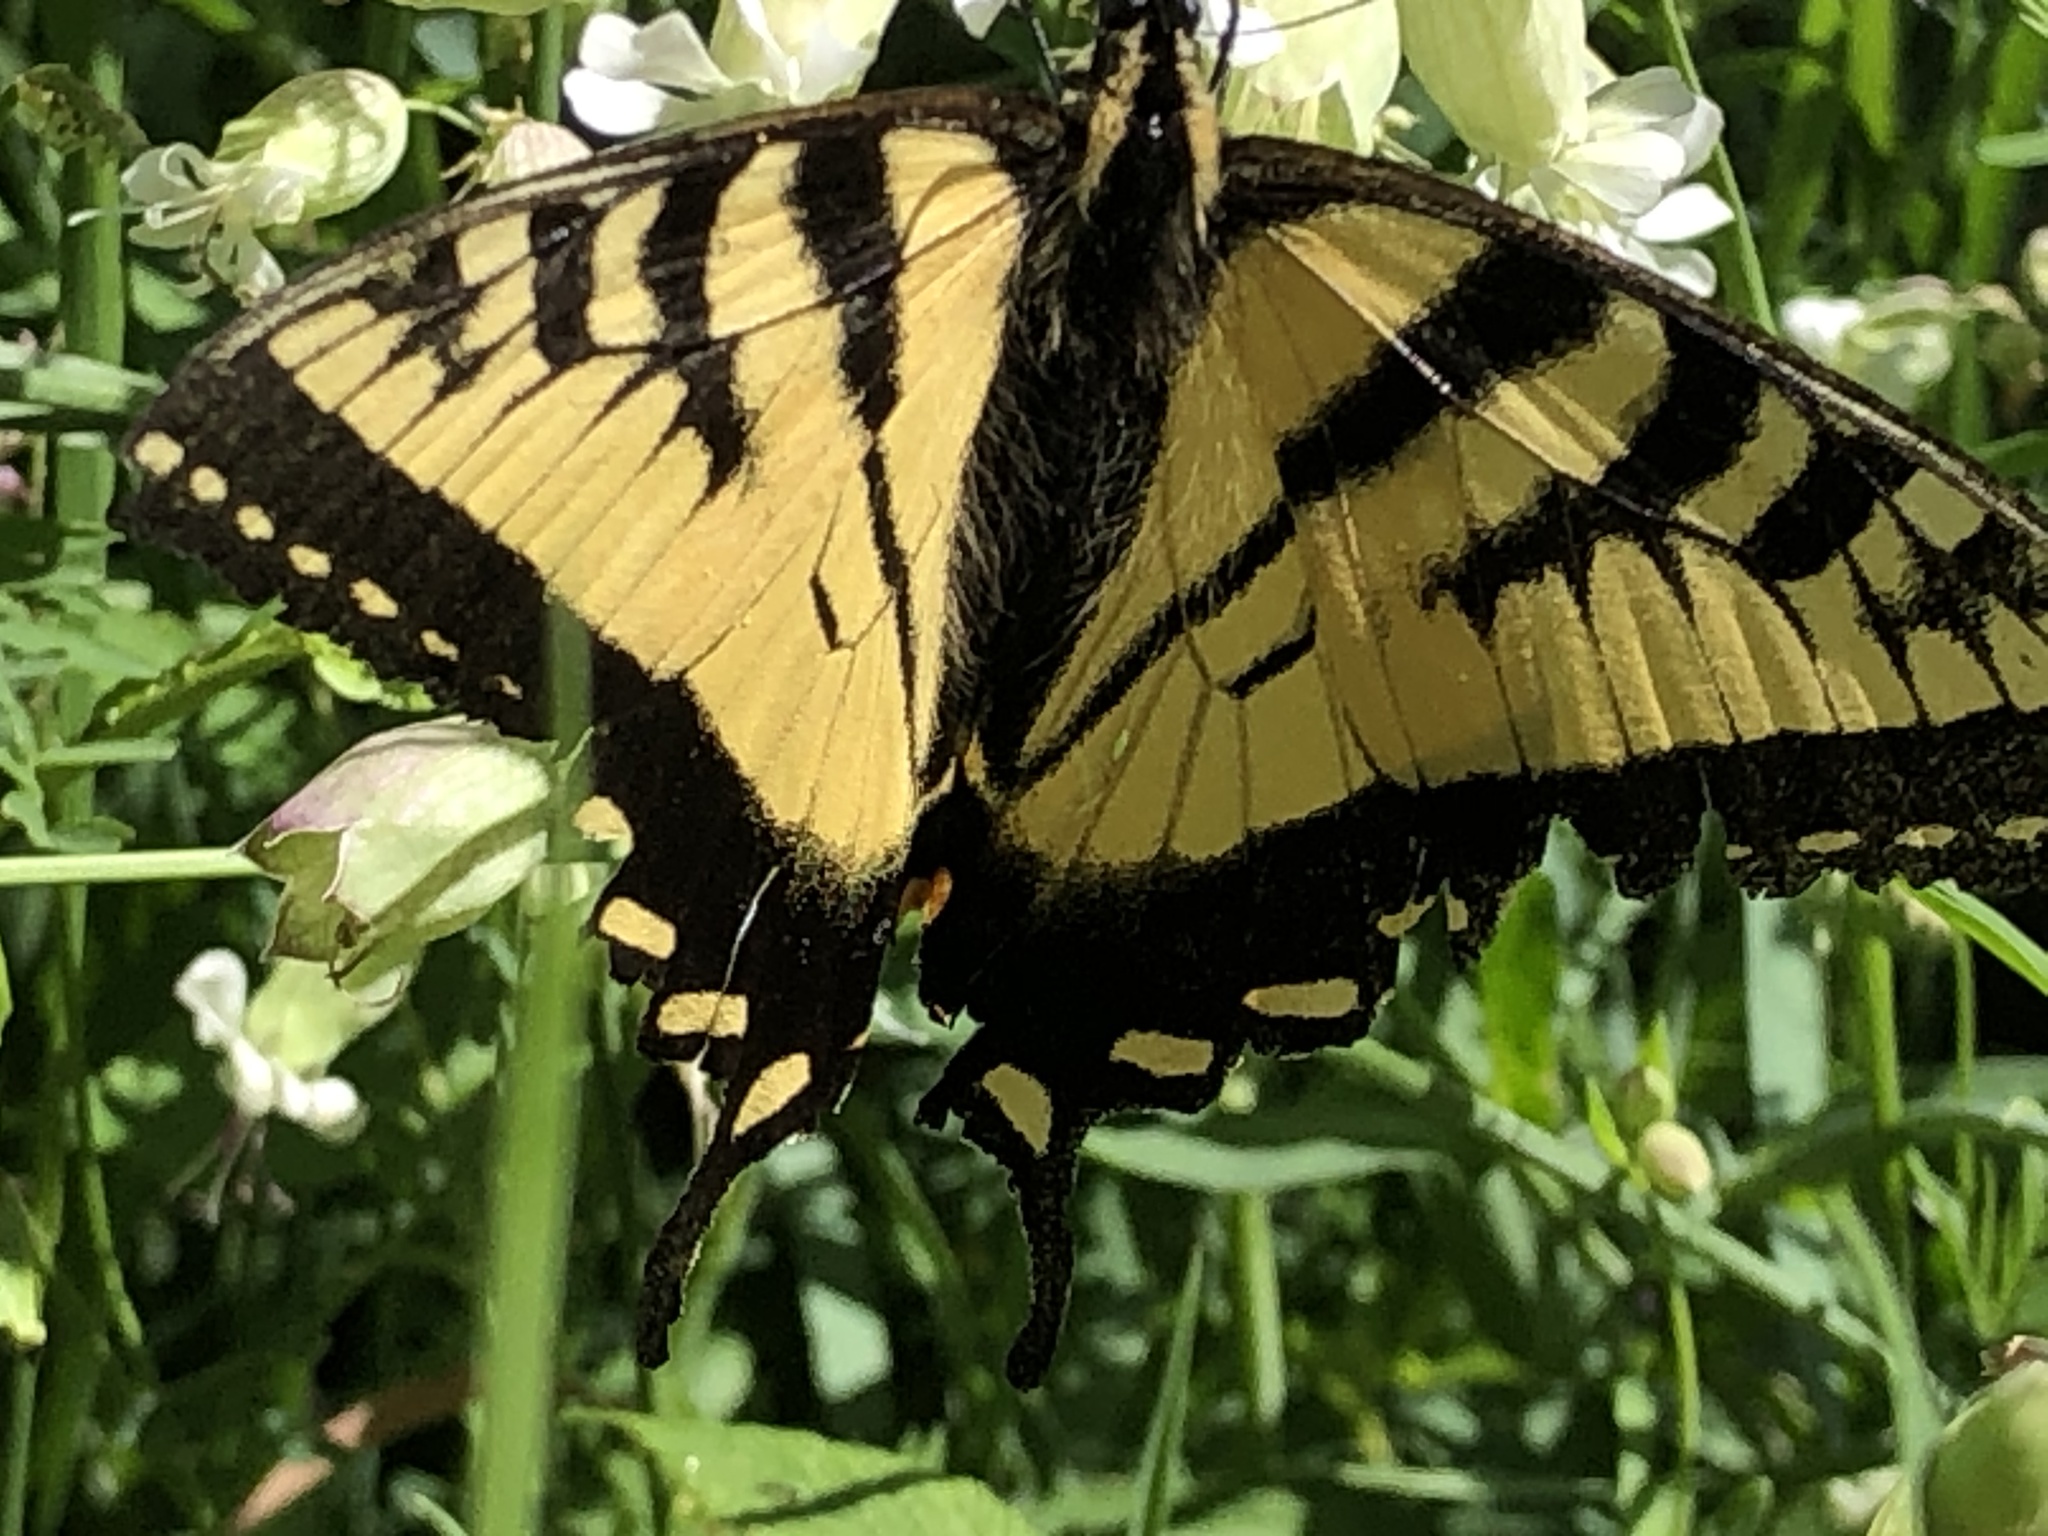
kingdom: Animalia
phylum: Arthropoda
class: Insecta
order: Lepidoptera
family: Papilionidae
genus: Papilio
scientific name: Papilio canadensis
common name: Canadian tiger swallowtail
